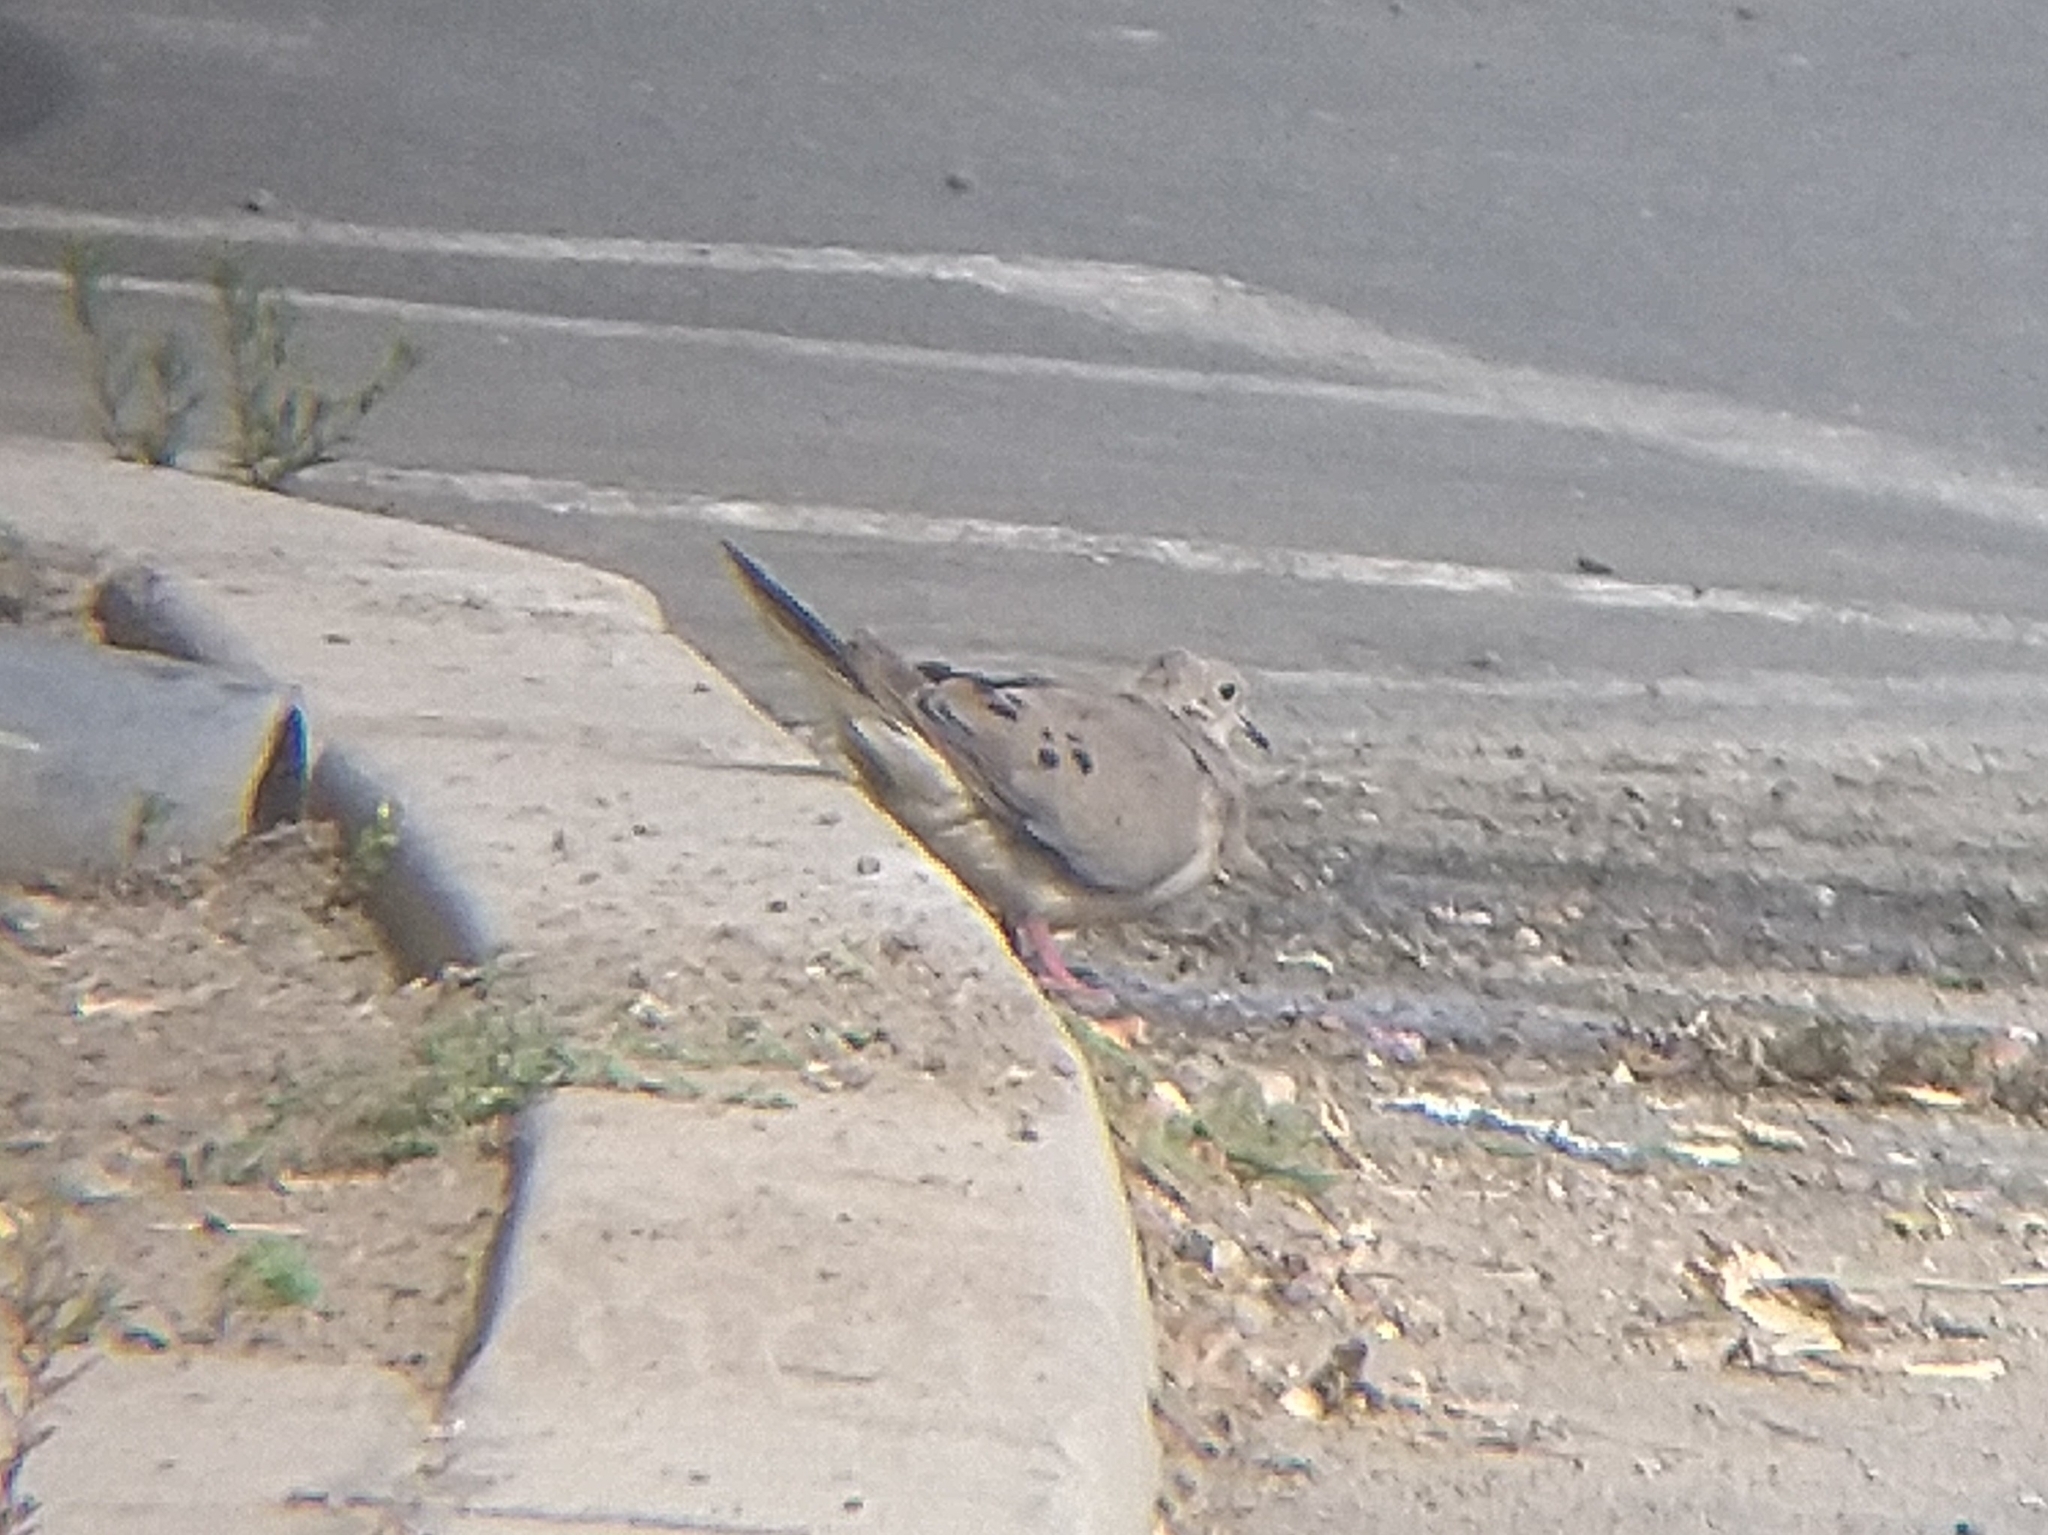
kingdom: Animalia
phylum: Chordata
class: Aves
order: Columbiformes
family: Columbidae
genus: Zenaida
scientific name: Zenaida macroura
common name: Mourning dove
